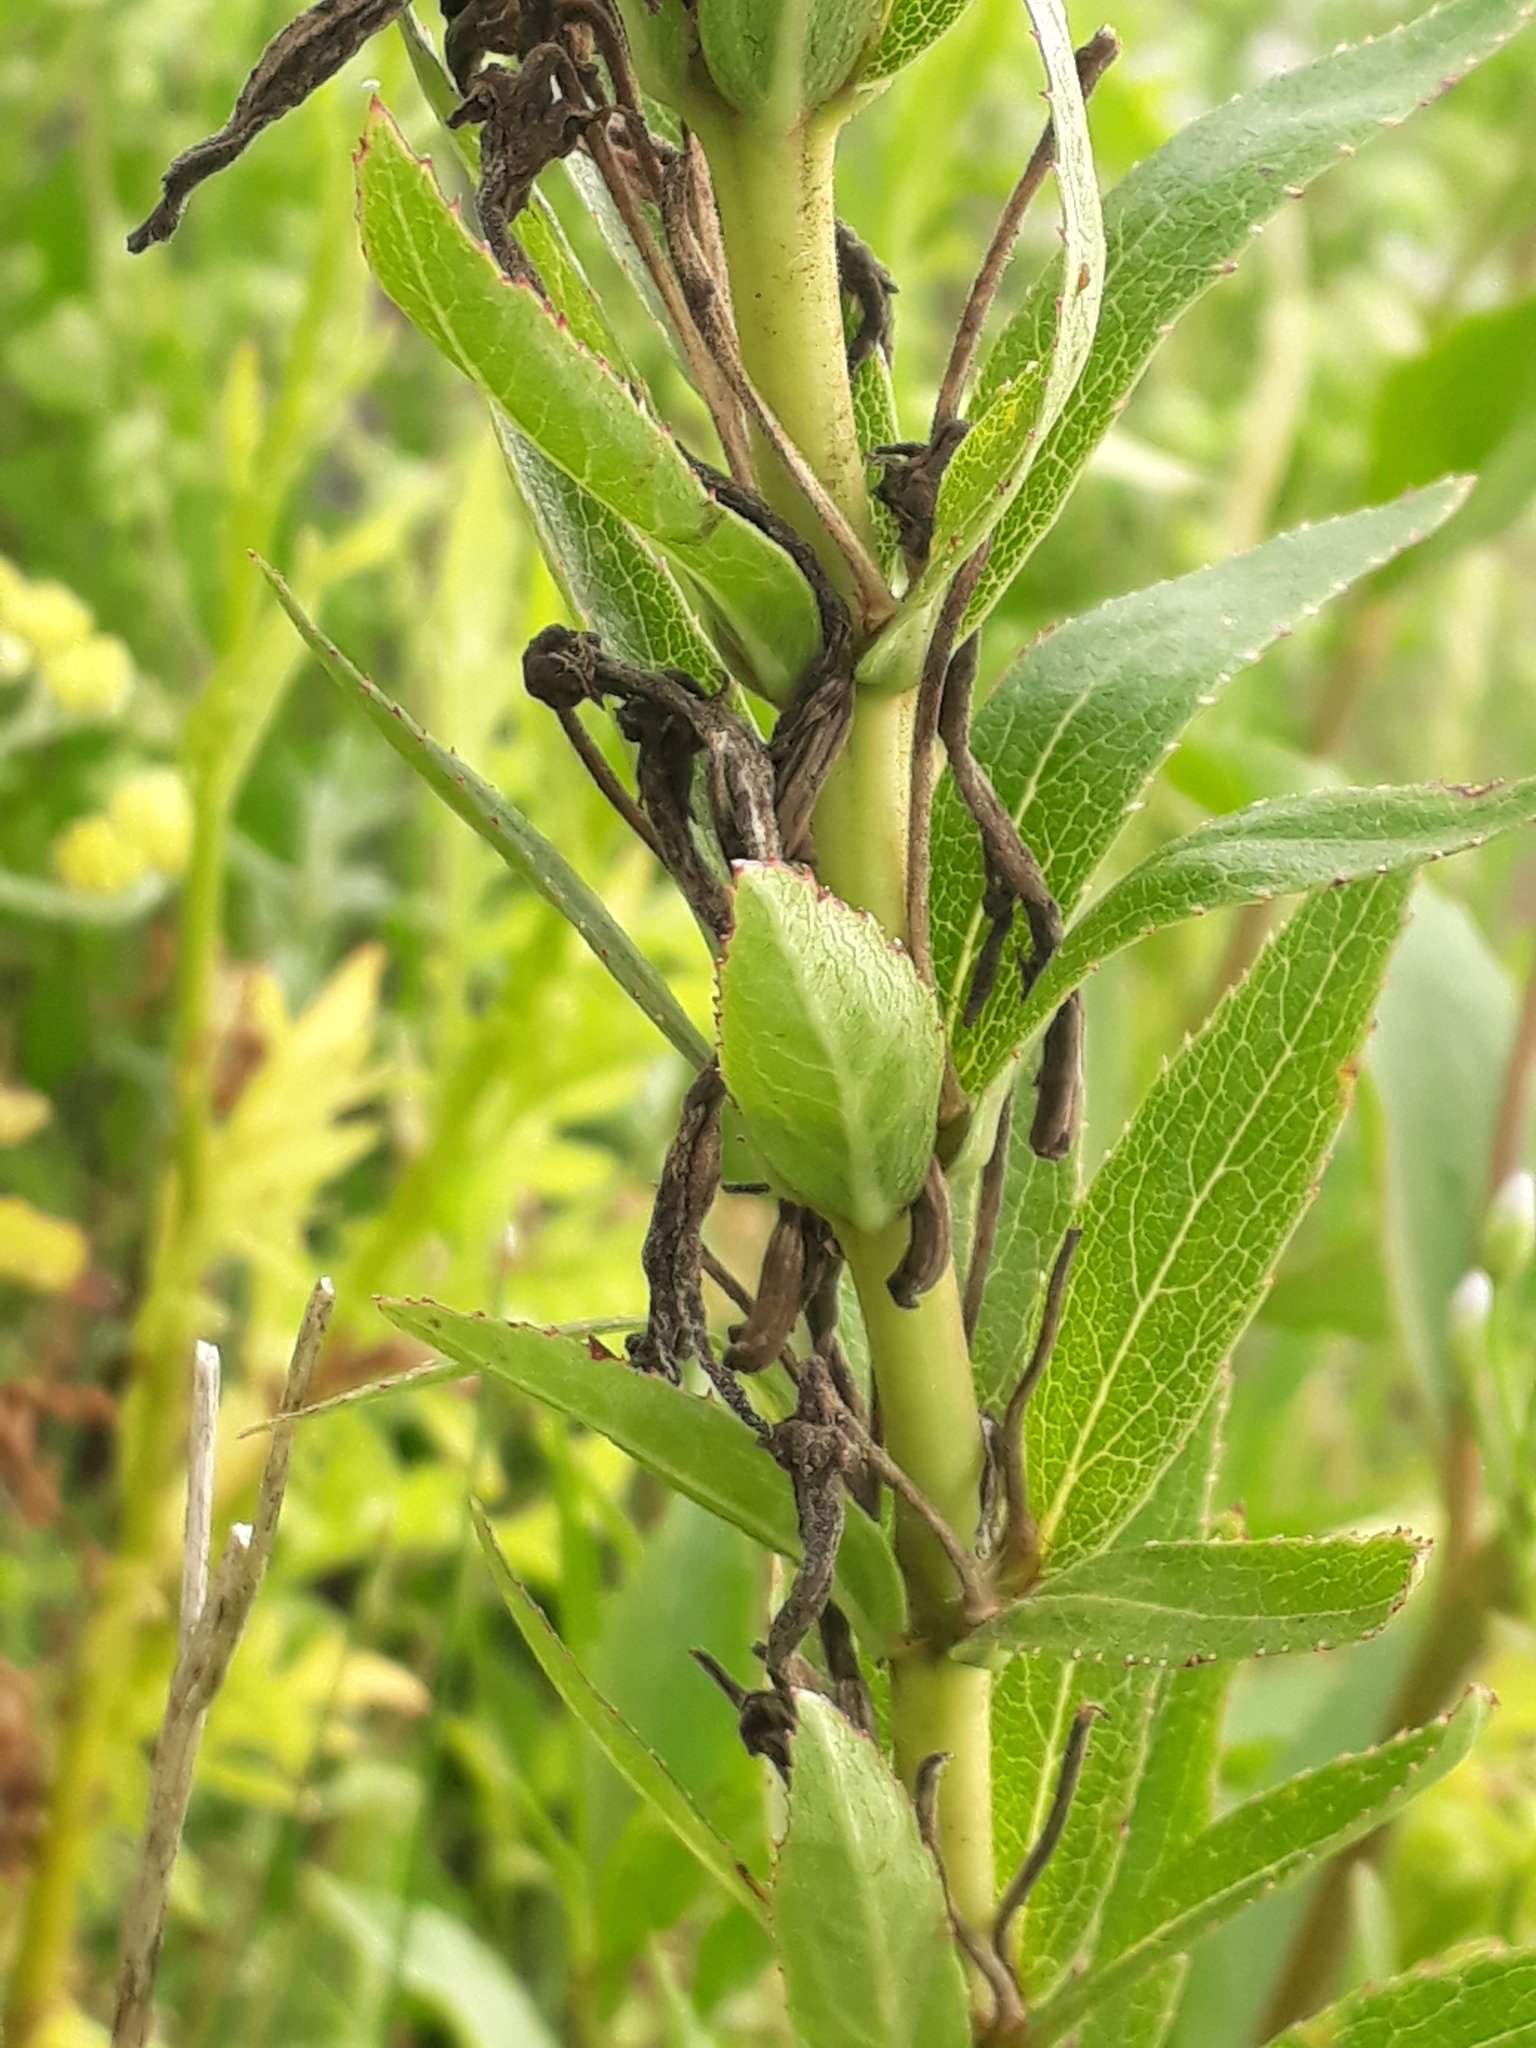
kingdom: Plantae
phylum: Tracheophyta
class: Magnoliopsida
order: Asterales
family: Campanulaceae
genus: Siphocampylus
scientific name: Siphocampylus verticillatus
